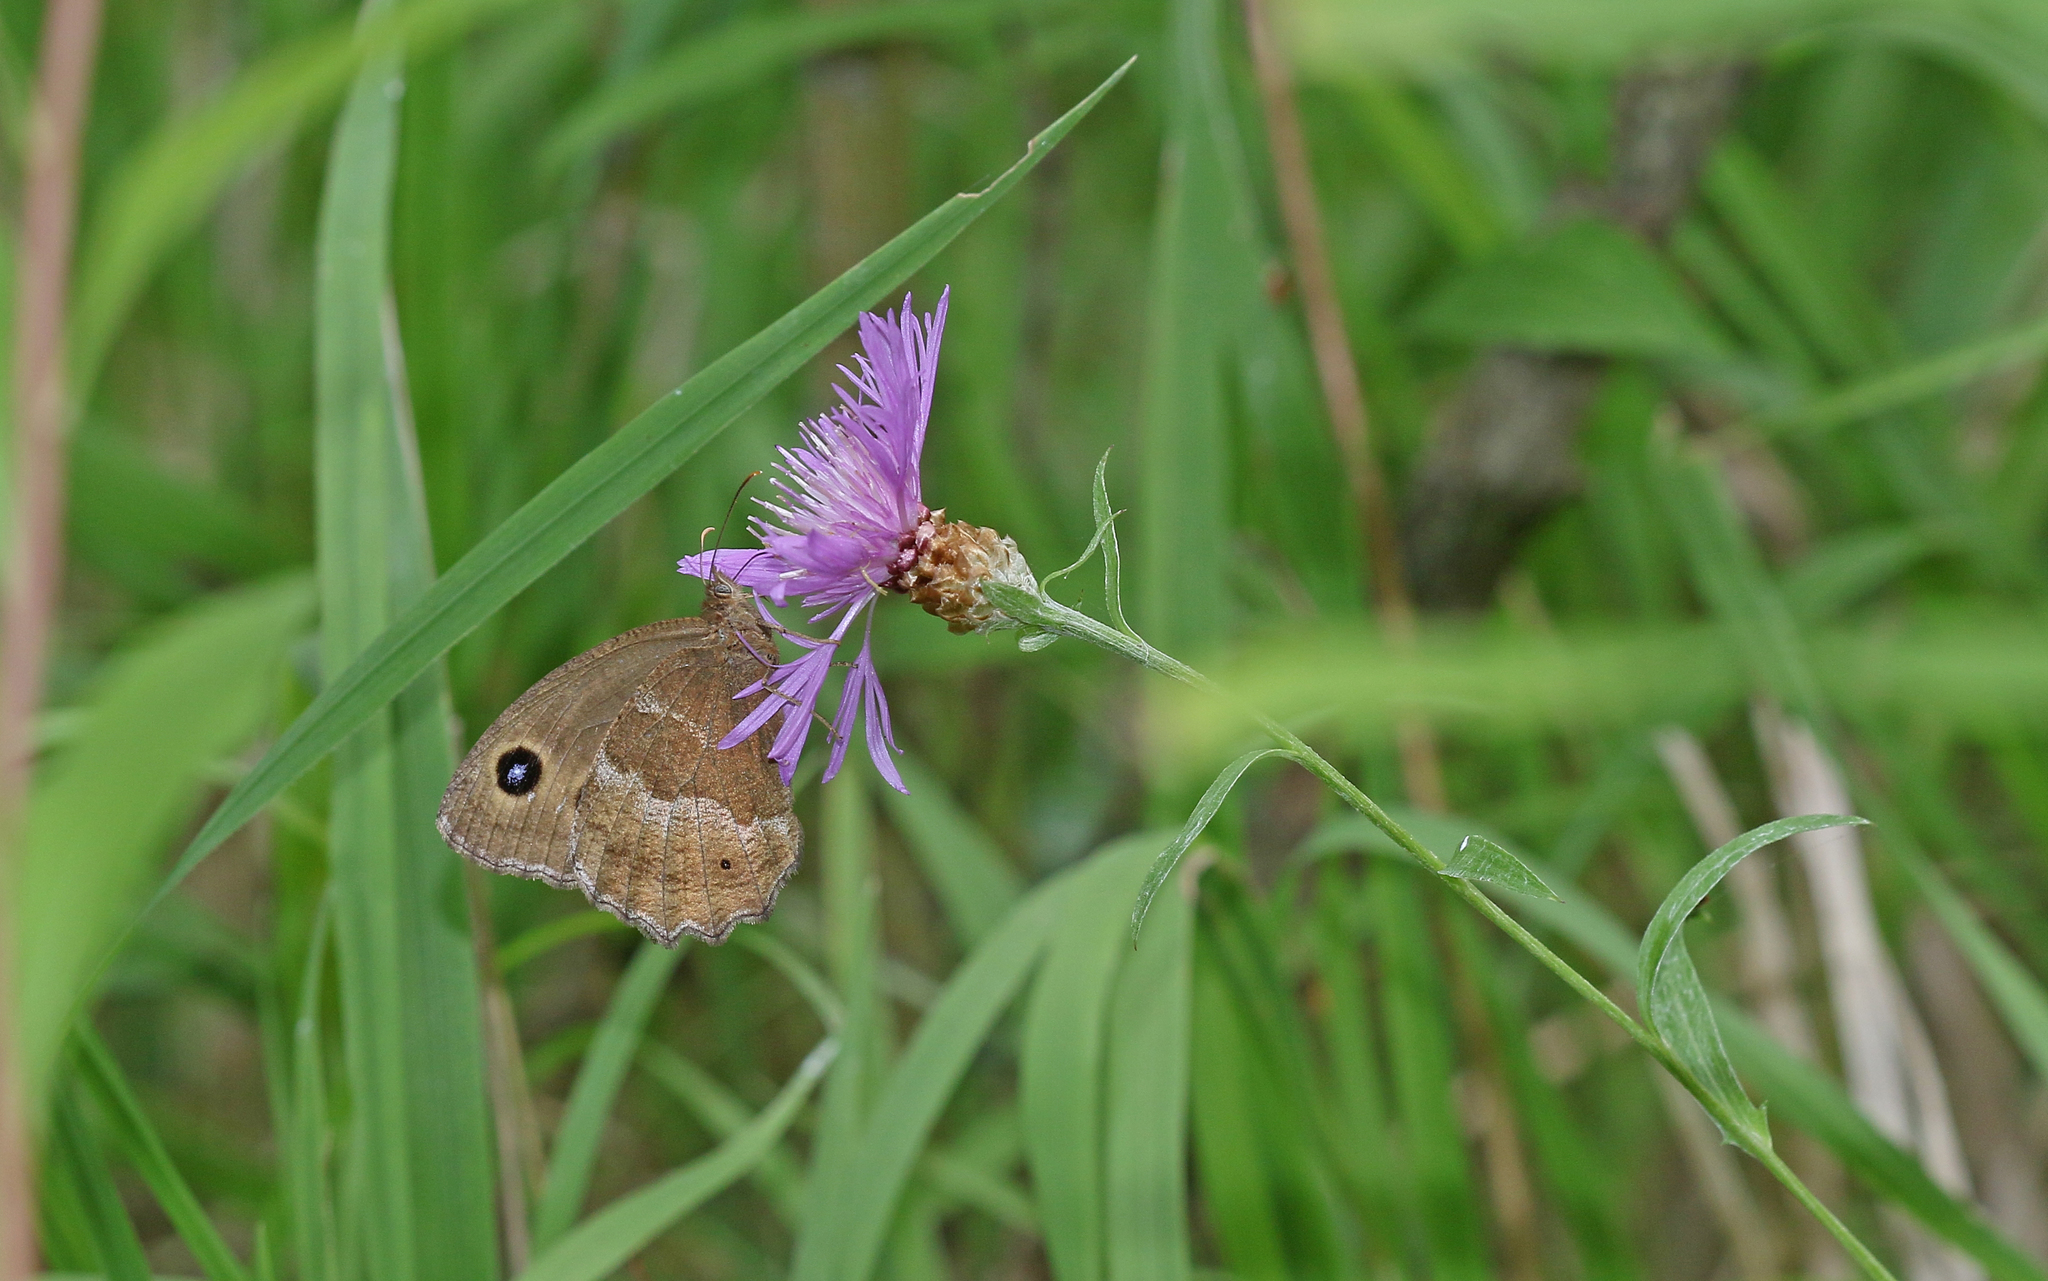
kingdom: Animalia
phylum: Arthropoda
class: Insecta
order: Lepidoptera
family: Nymphalidae
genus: Minois
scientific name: Minois dryas
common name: Dryad
